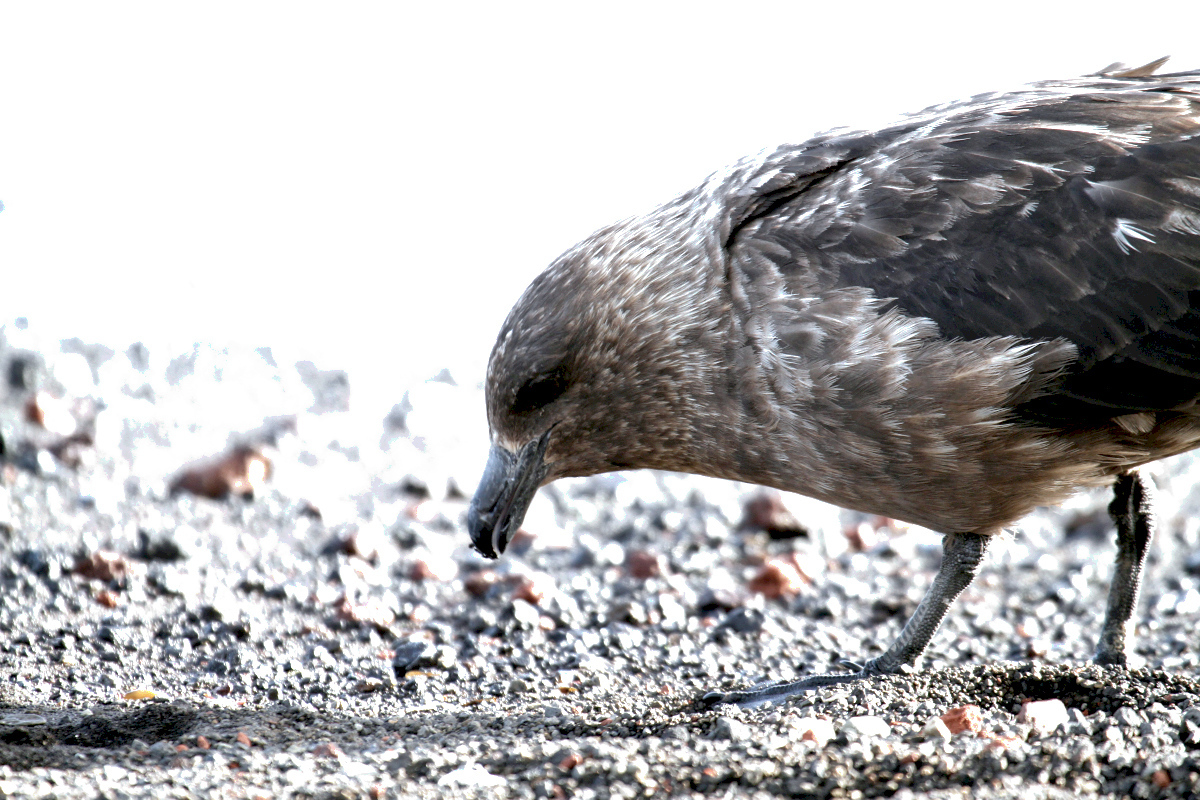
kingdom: Animalia
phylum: Chordata
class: Aves
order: Charadriiformes
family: Stercorariidae
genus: Stercorarius
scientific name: Stercorarius antarcticus
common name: Brown skua
